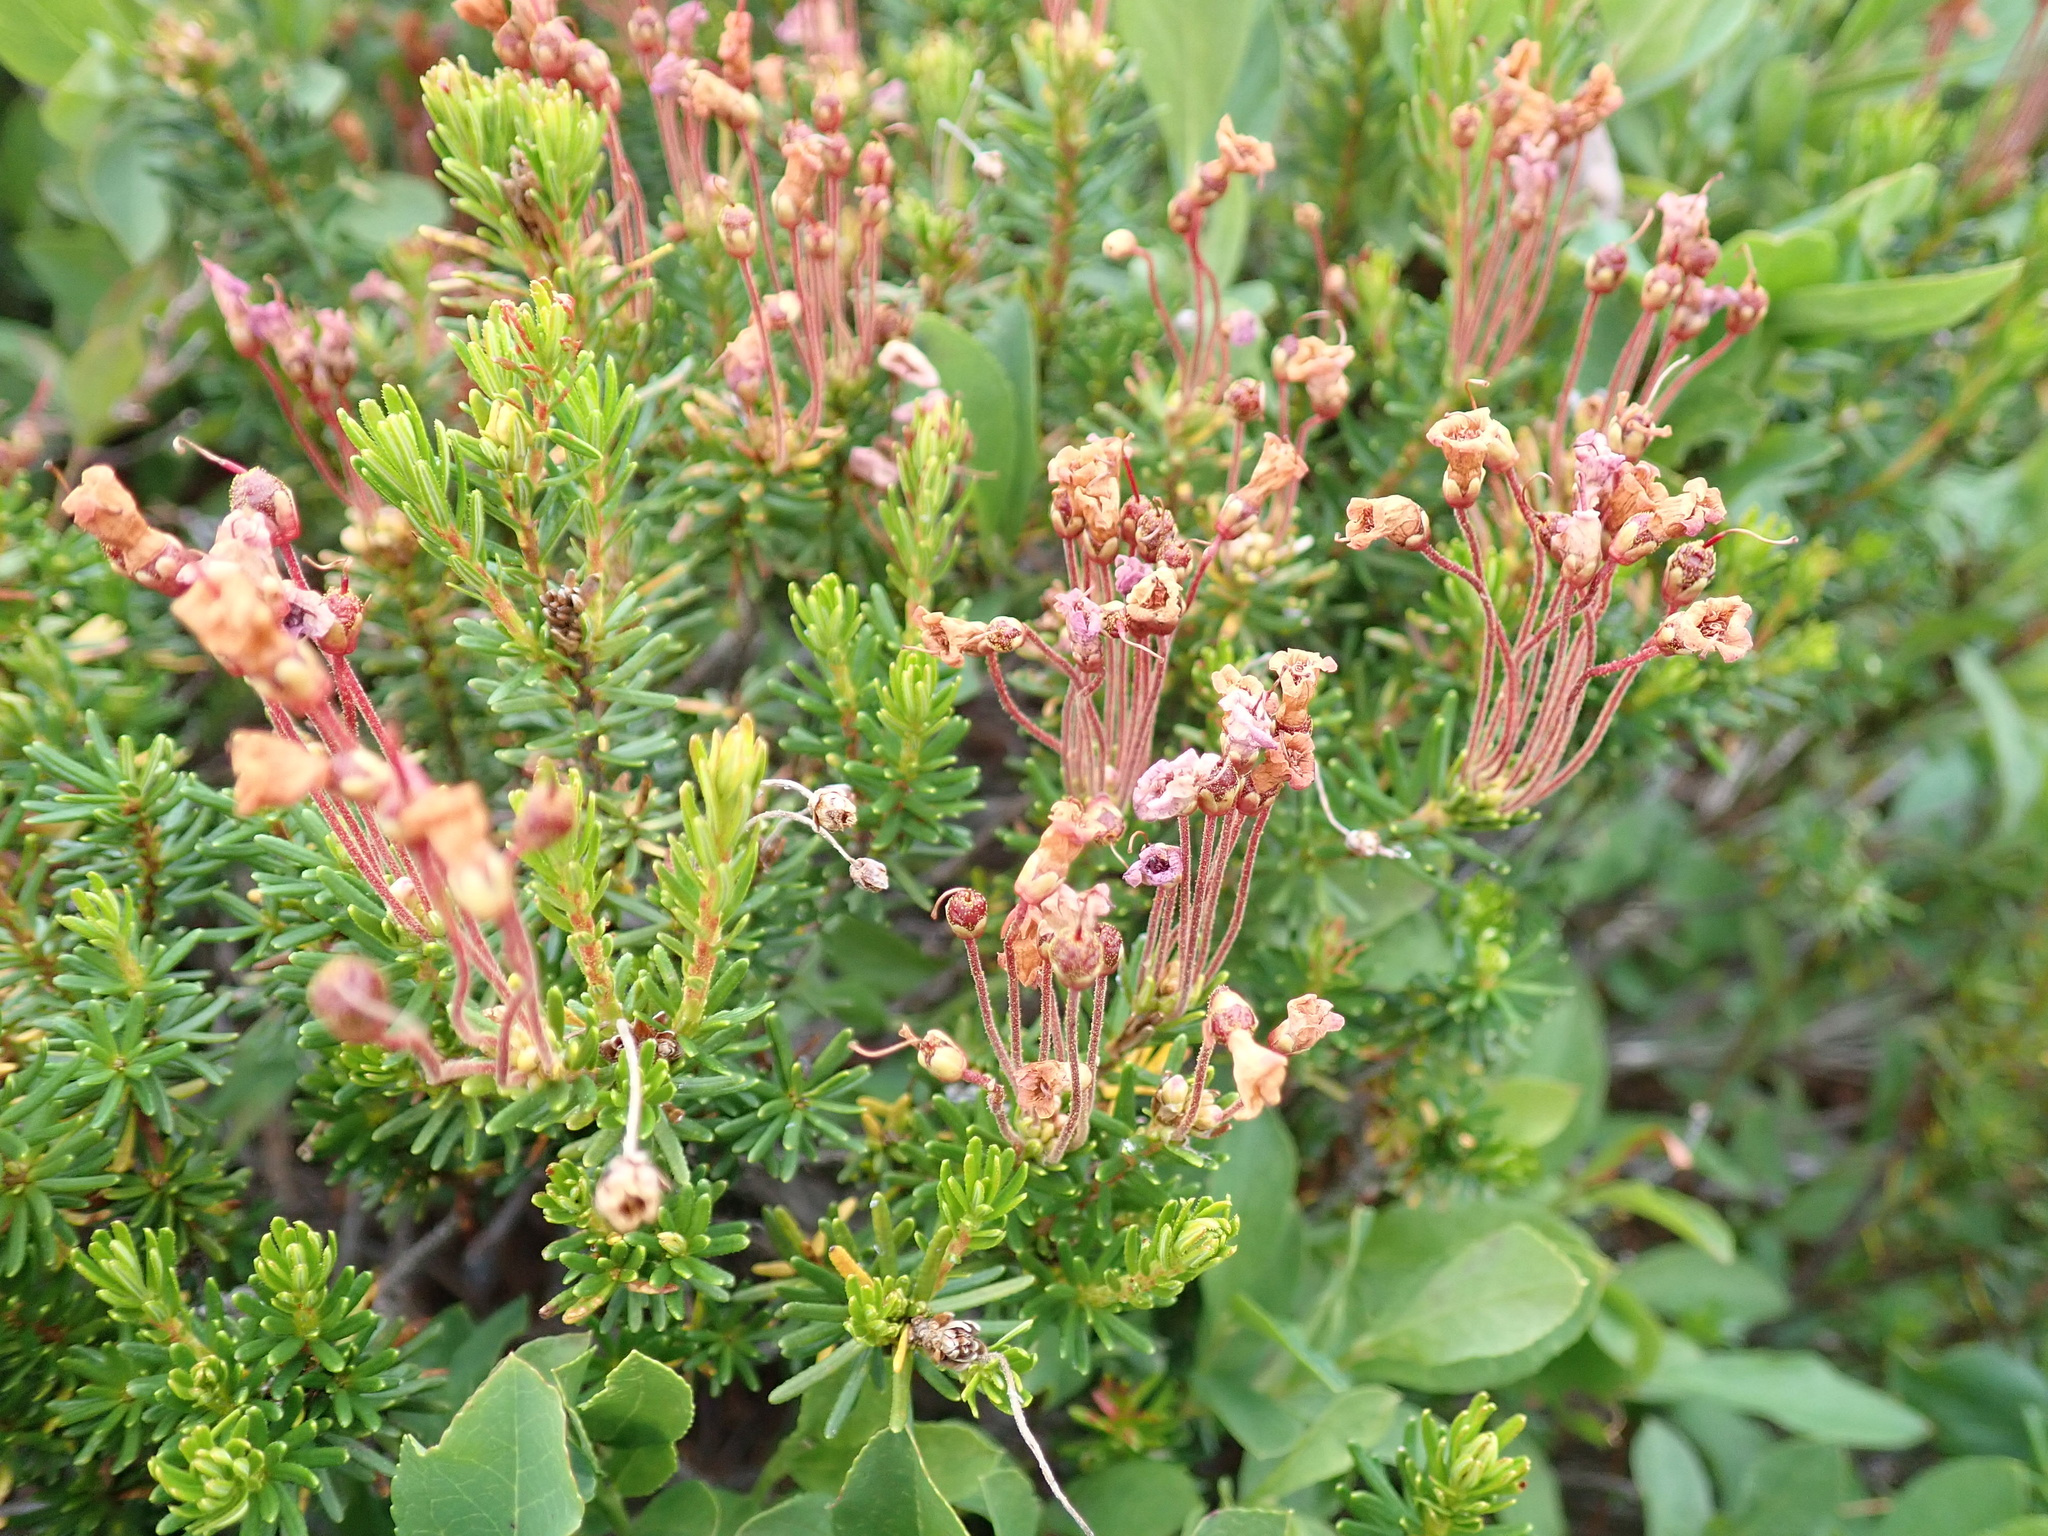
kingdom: Plantae
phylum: Tracheophyta
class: Magnoliopsida
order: Ericales
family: Ericaceae
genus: Phyllodoce
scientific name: Phyllodoce empetriformis
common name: Pink mountain heather
